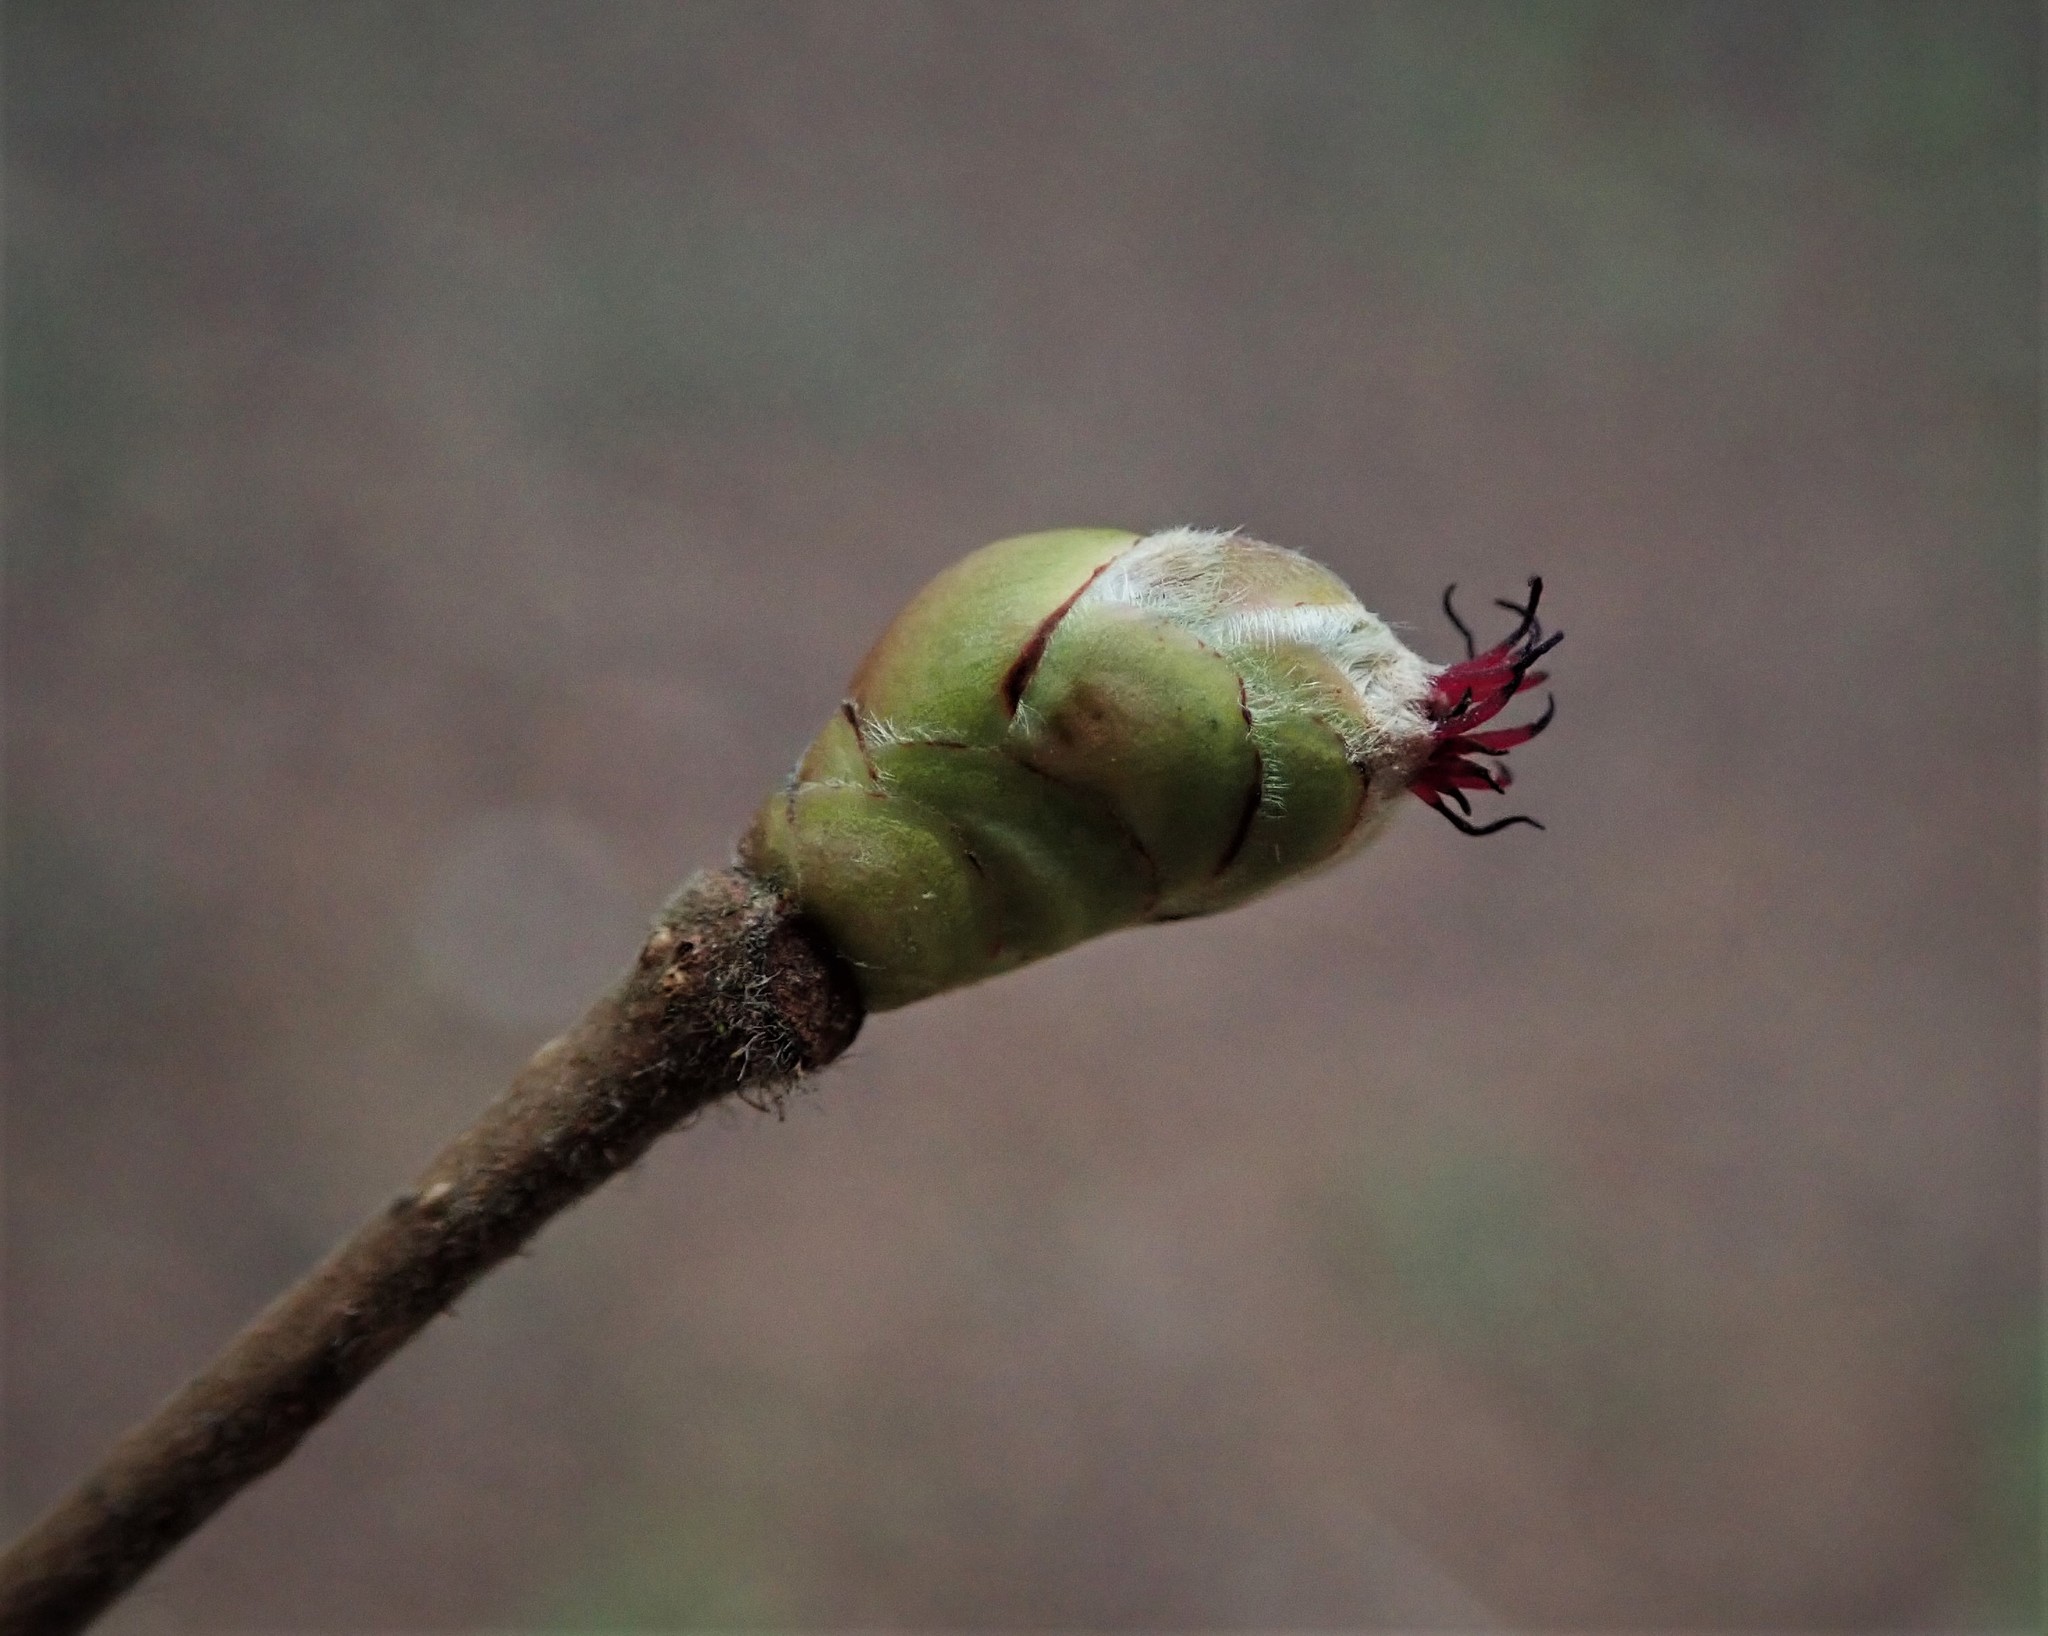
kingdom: Plantae
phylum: Tracheophyta
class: Magnoliopsida
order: Fagales
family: Betulaceae
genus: Corylus
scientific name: Corylus avellana
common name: European hazel
